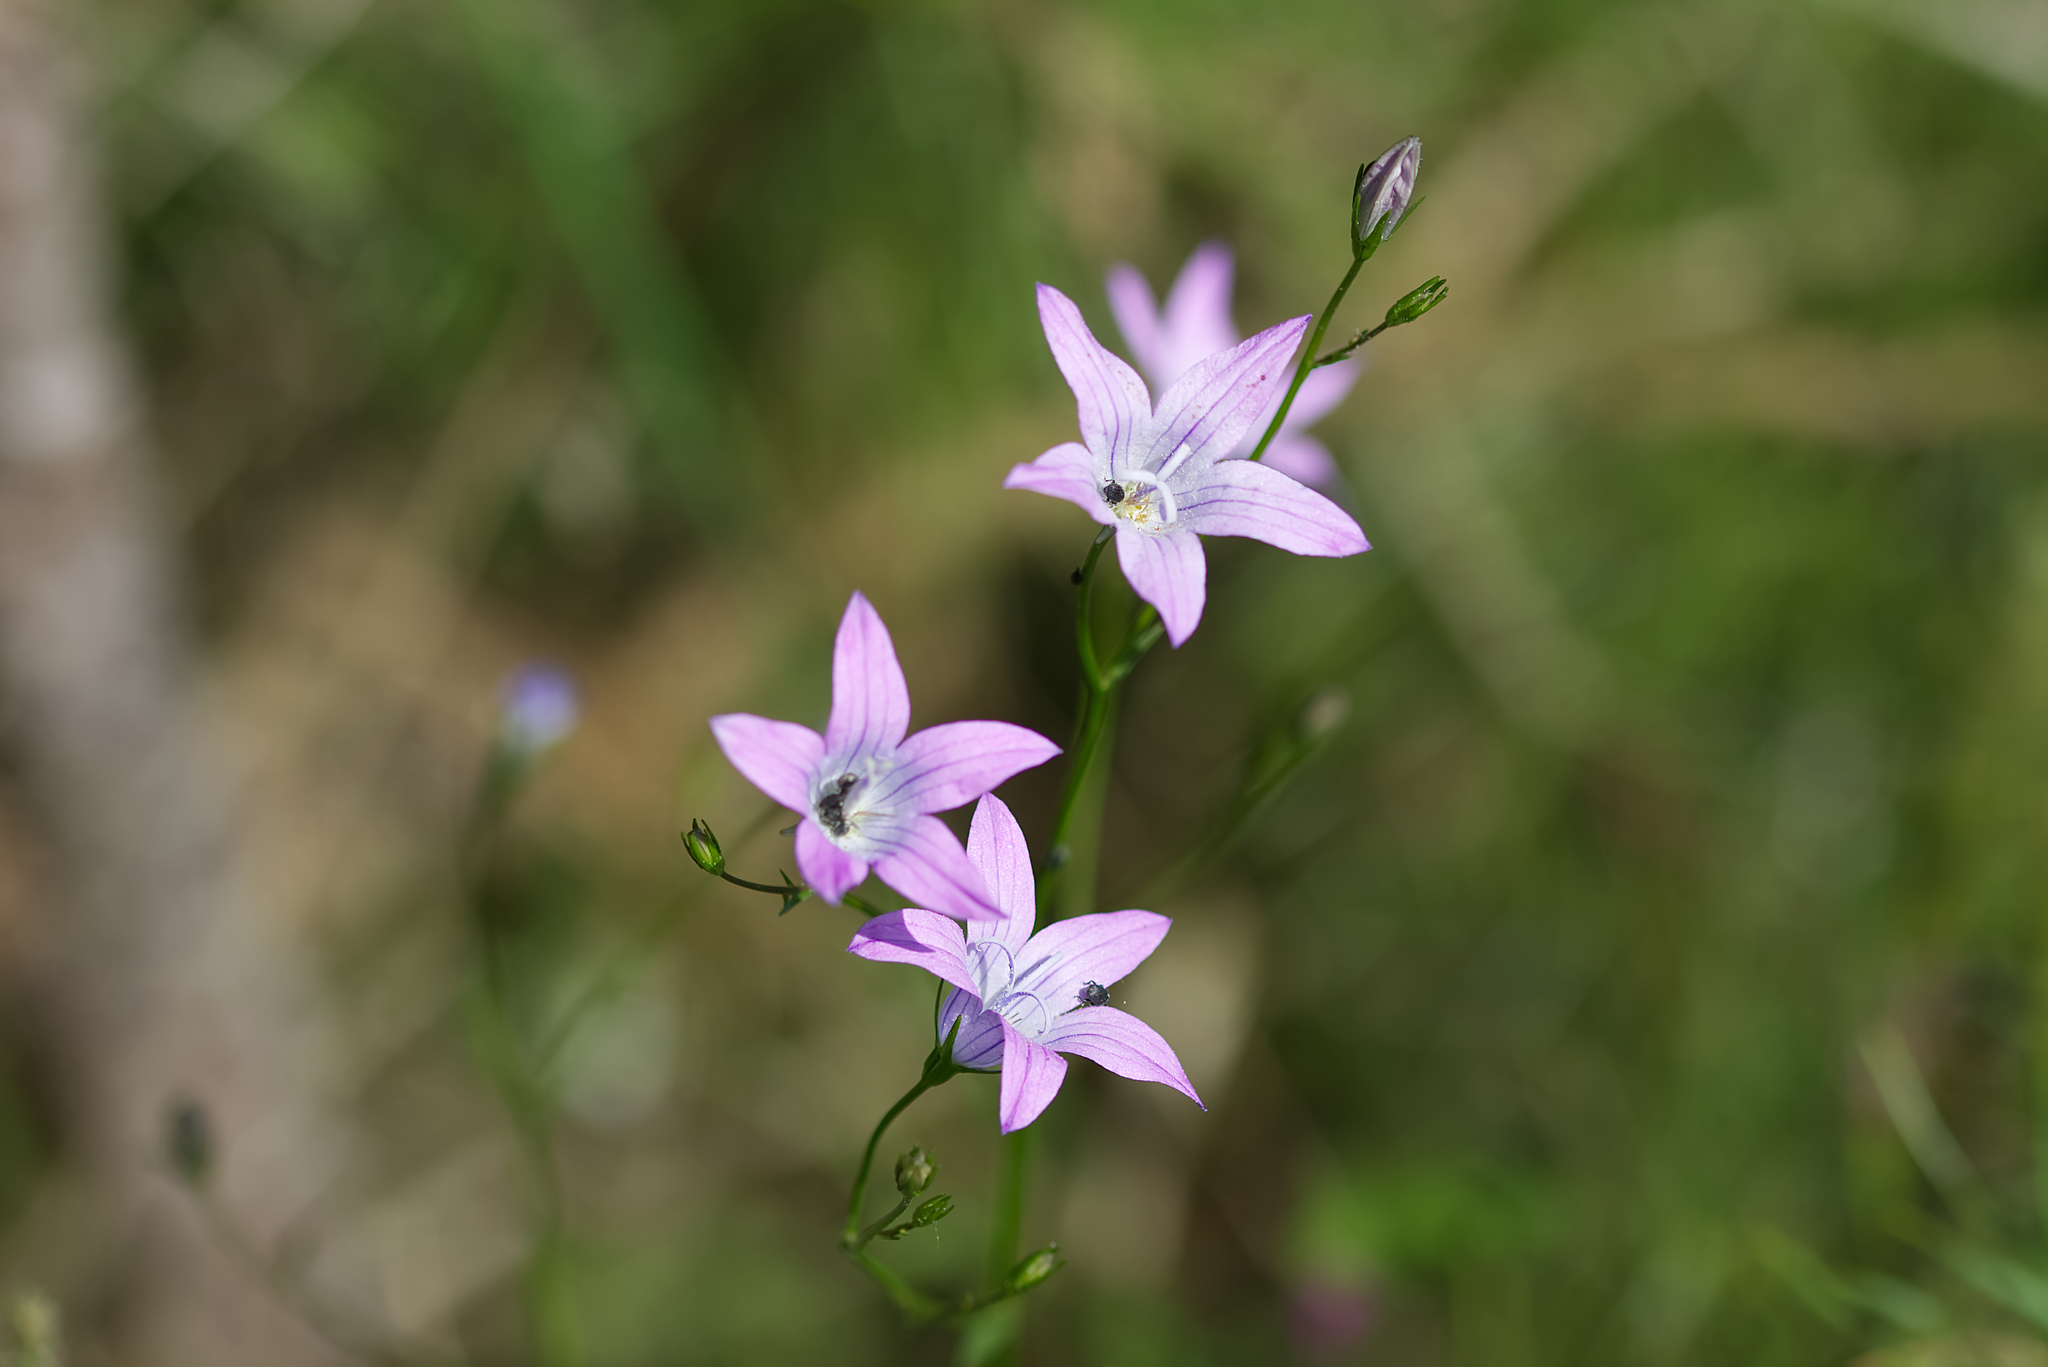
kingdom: Plantae
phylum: Tracheophyta
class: Magnoliopsida
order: Asterales
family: Campanulaceae
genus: Campanula
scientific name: Campanula patula
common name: Spreading bellflower
